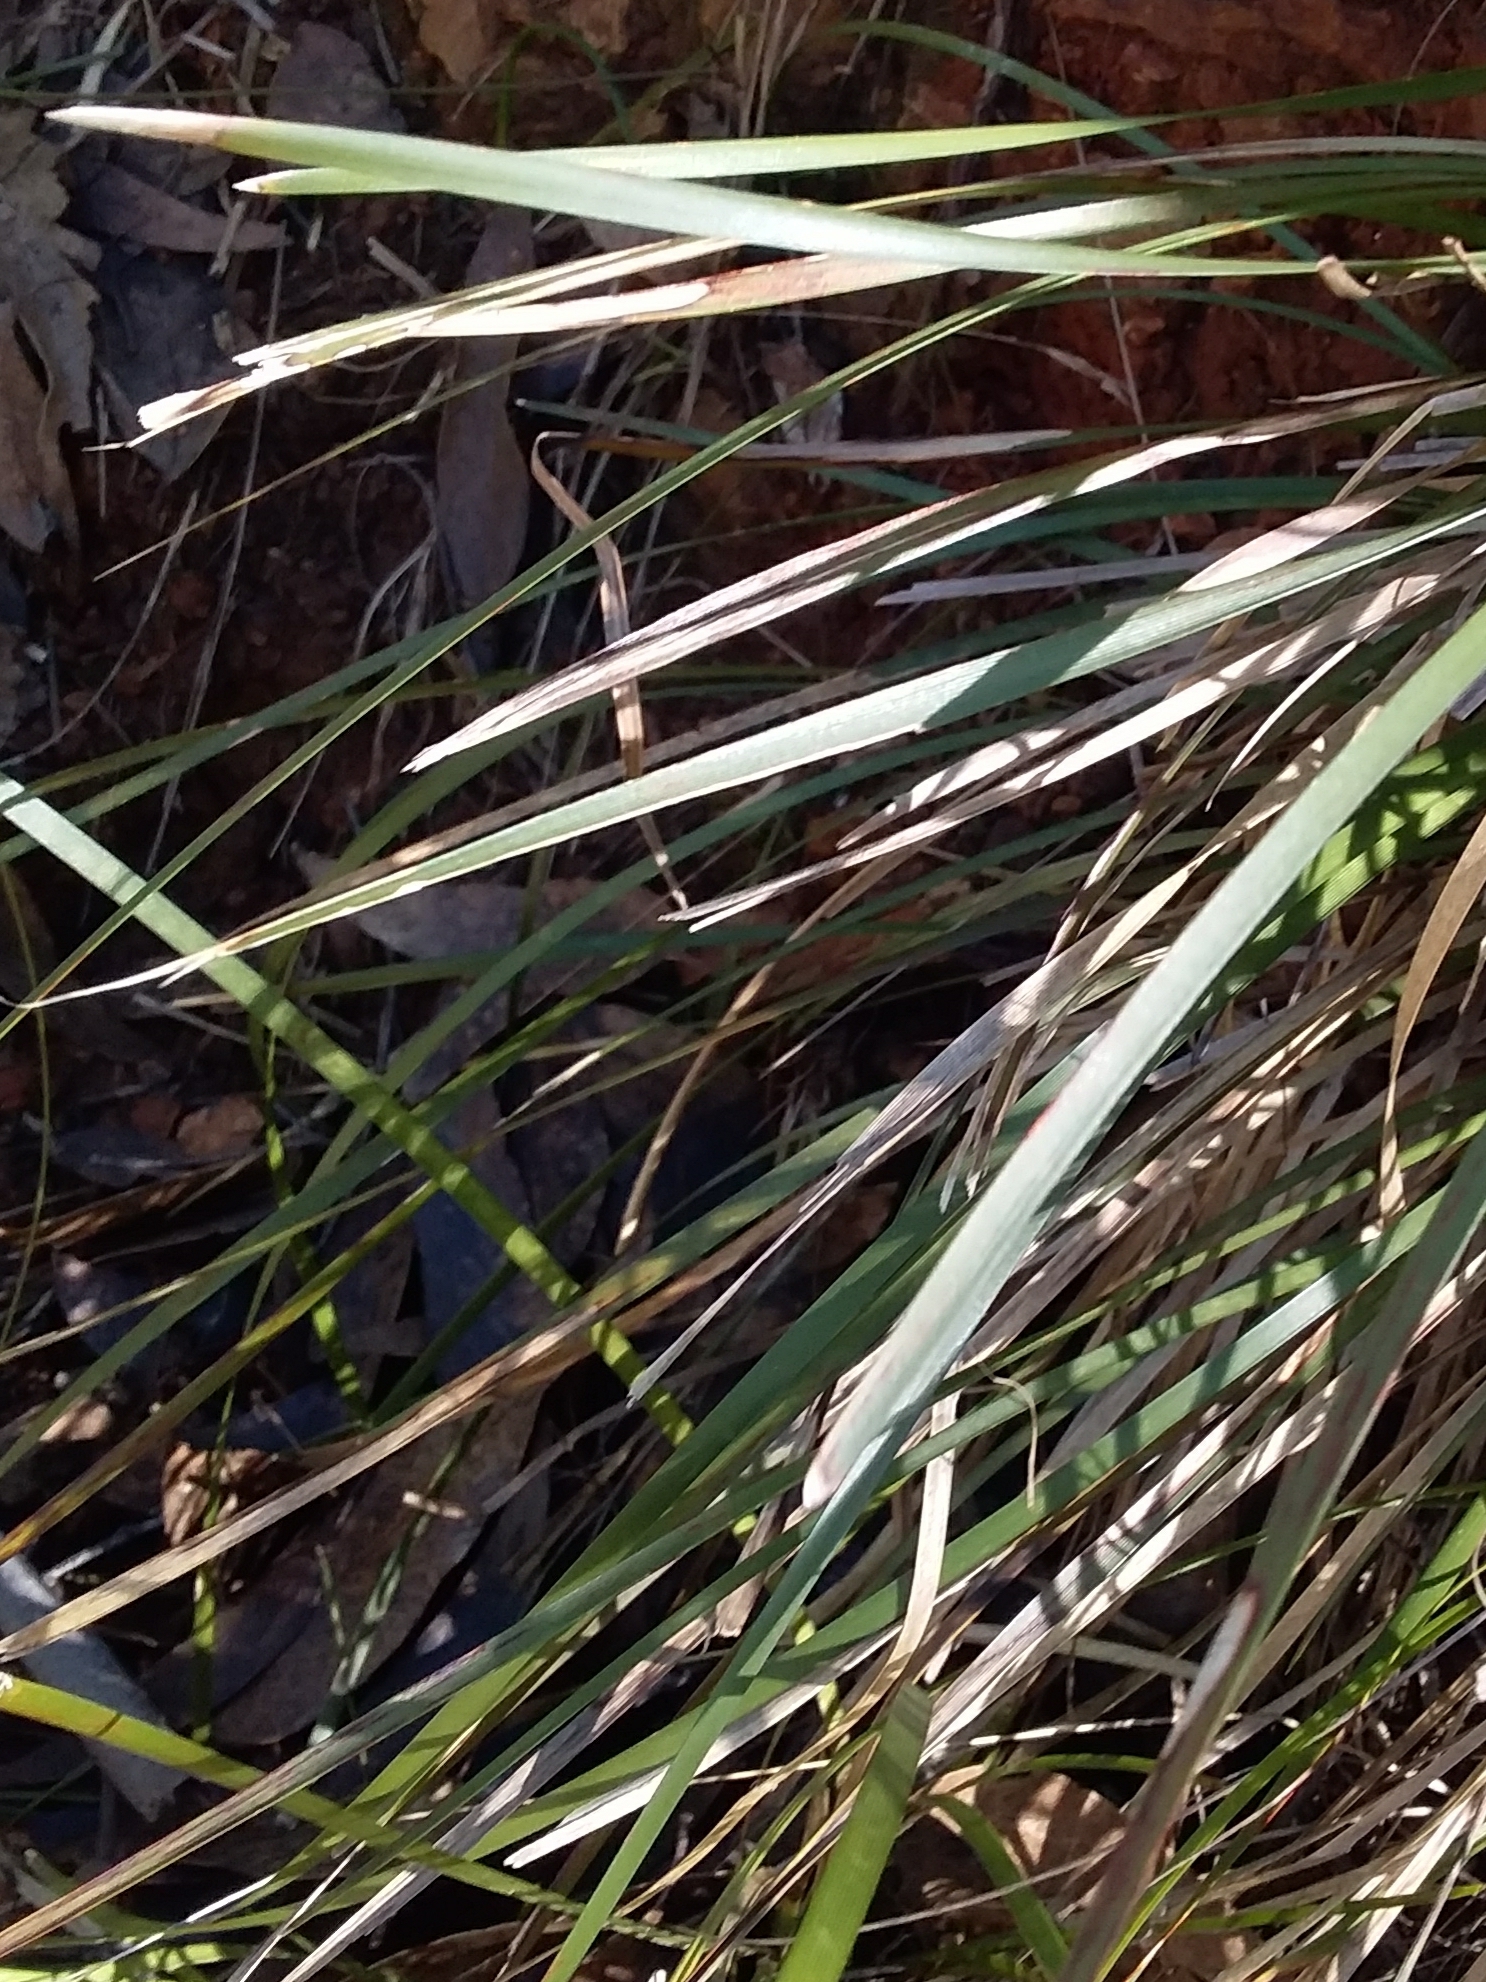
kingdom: Plantae
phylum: Tracheophyta
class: Liliopsida
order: Asparagales
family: Asparagaceae
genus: Lomandra
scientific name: Lomandra densiflora
